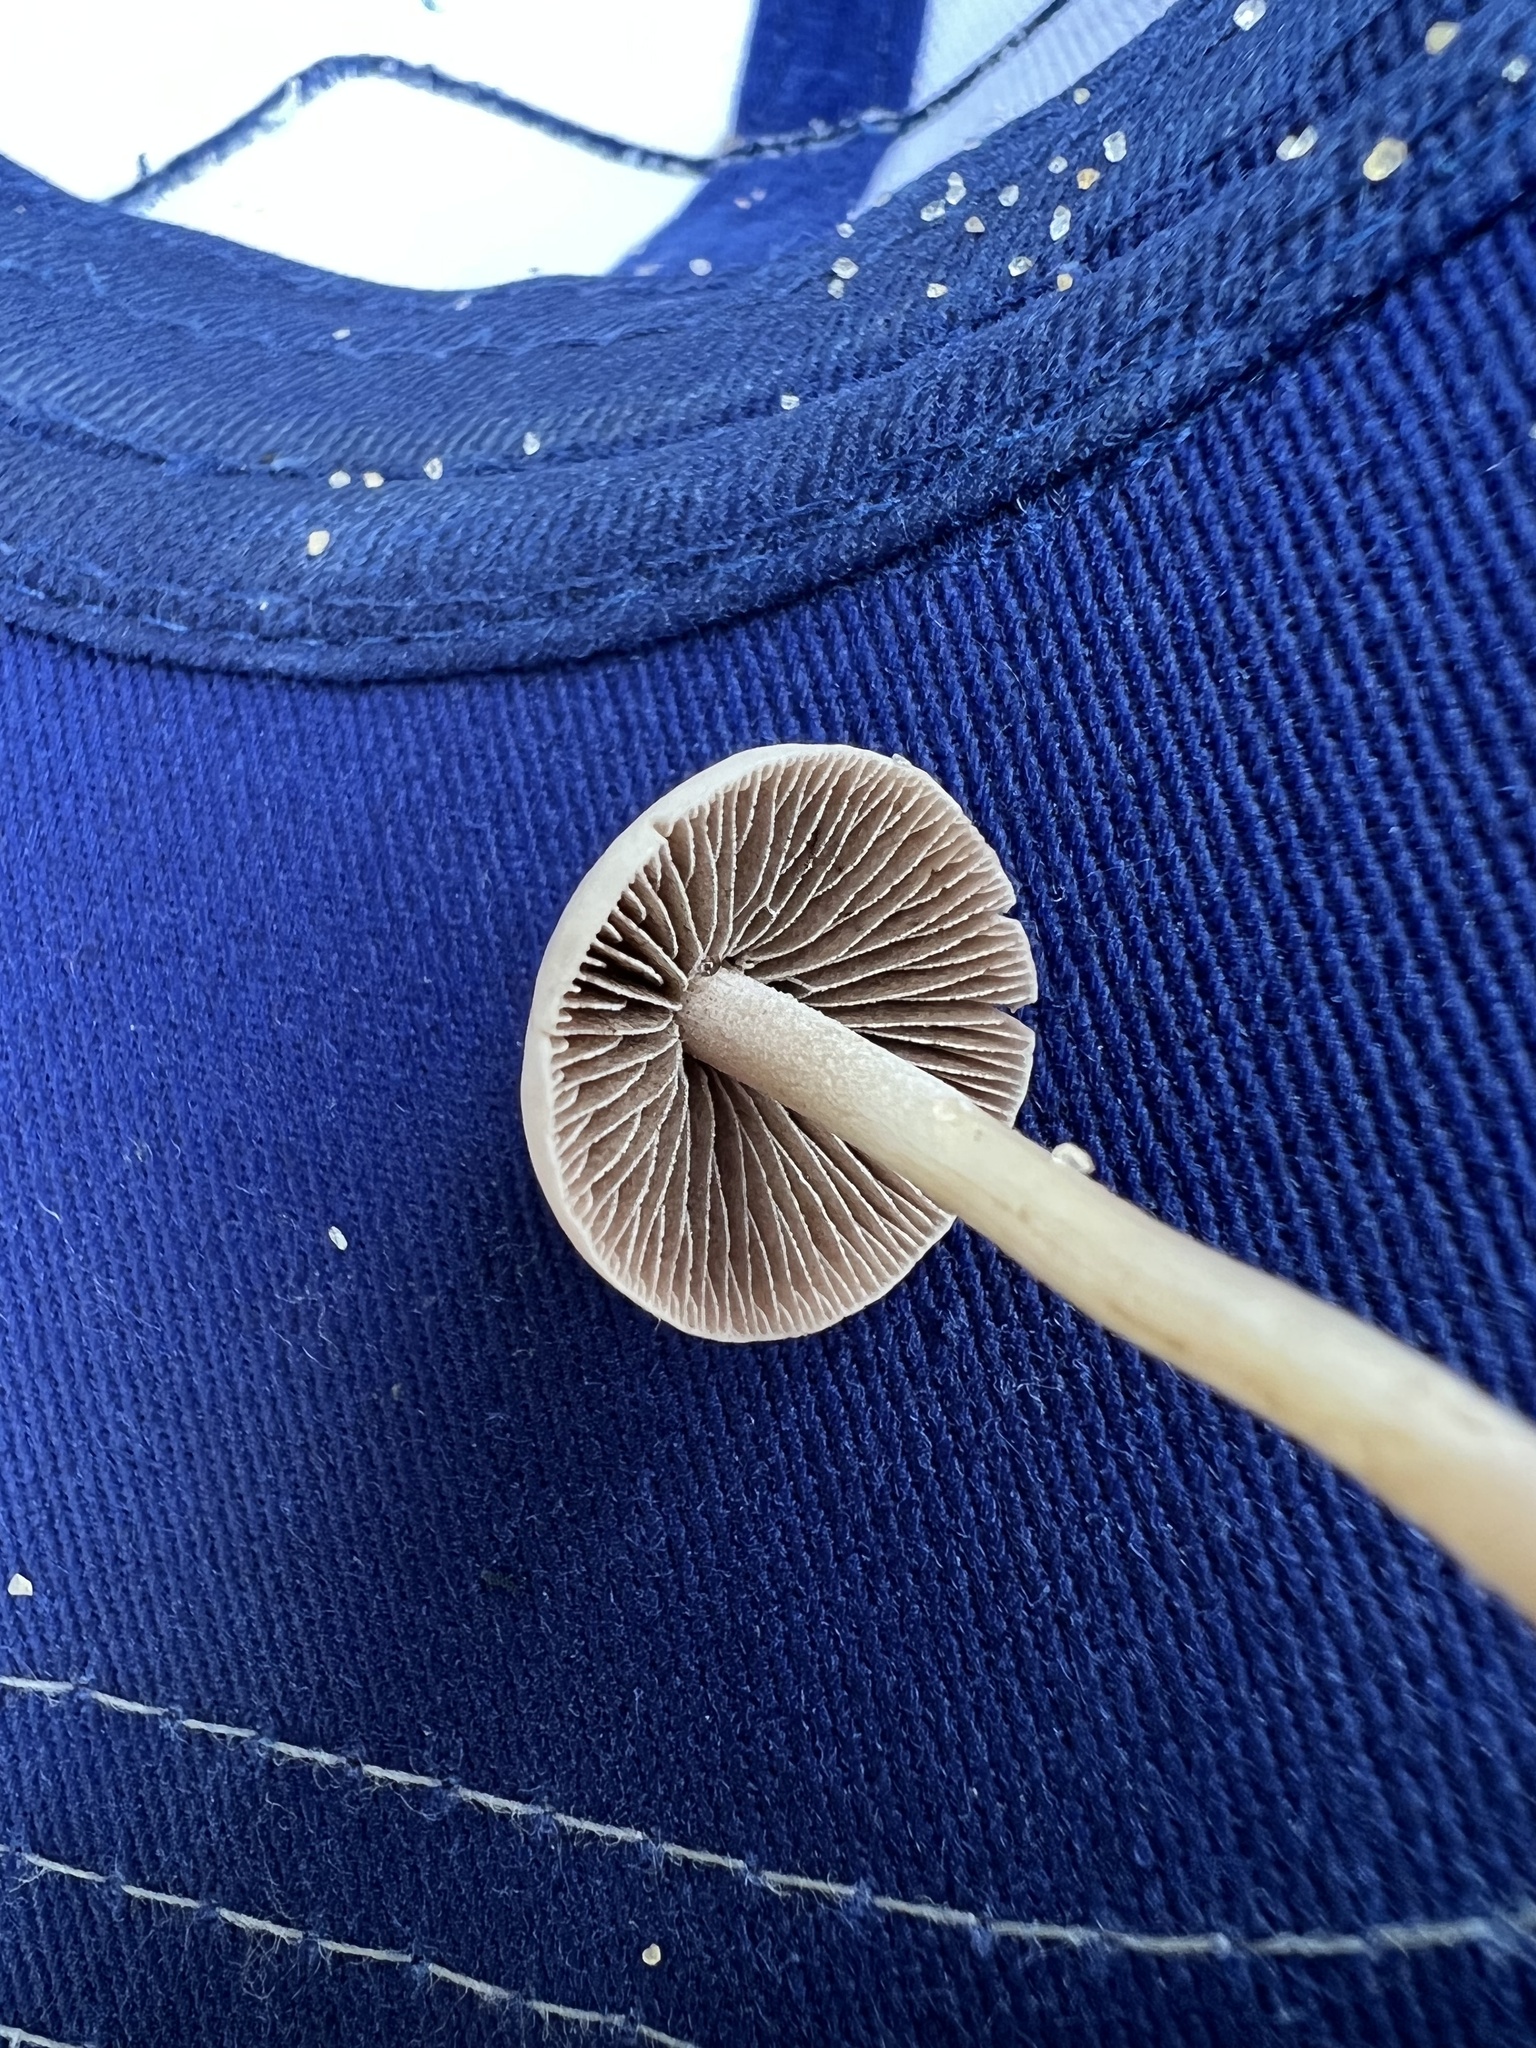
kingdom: Fungi
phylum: Basidiomycota
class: Agaricomycetes
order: Agaricales
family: Bolbitiaceae
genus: Panaeolus
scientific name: Panaeolus
